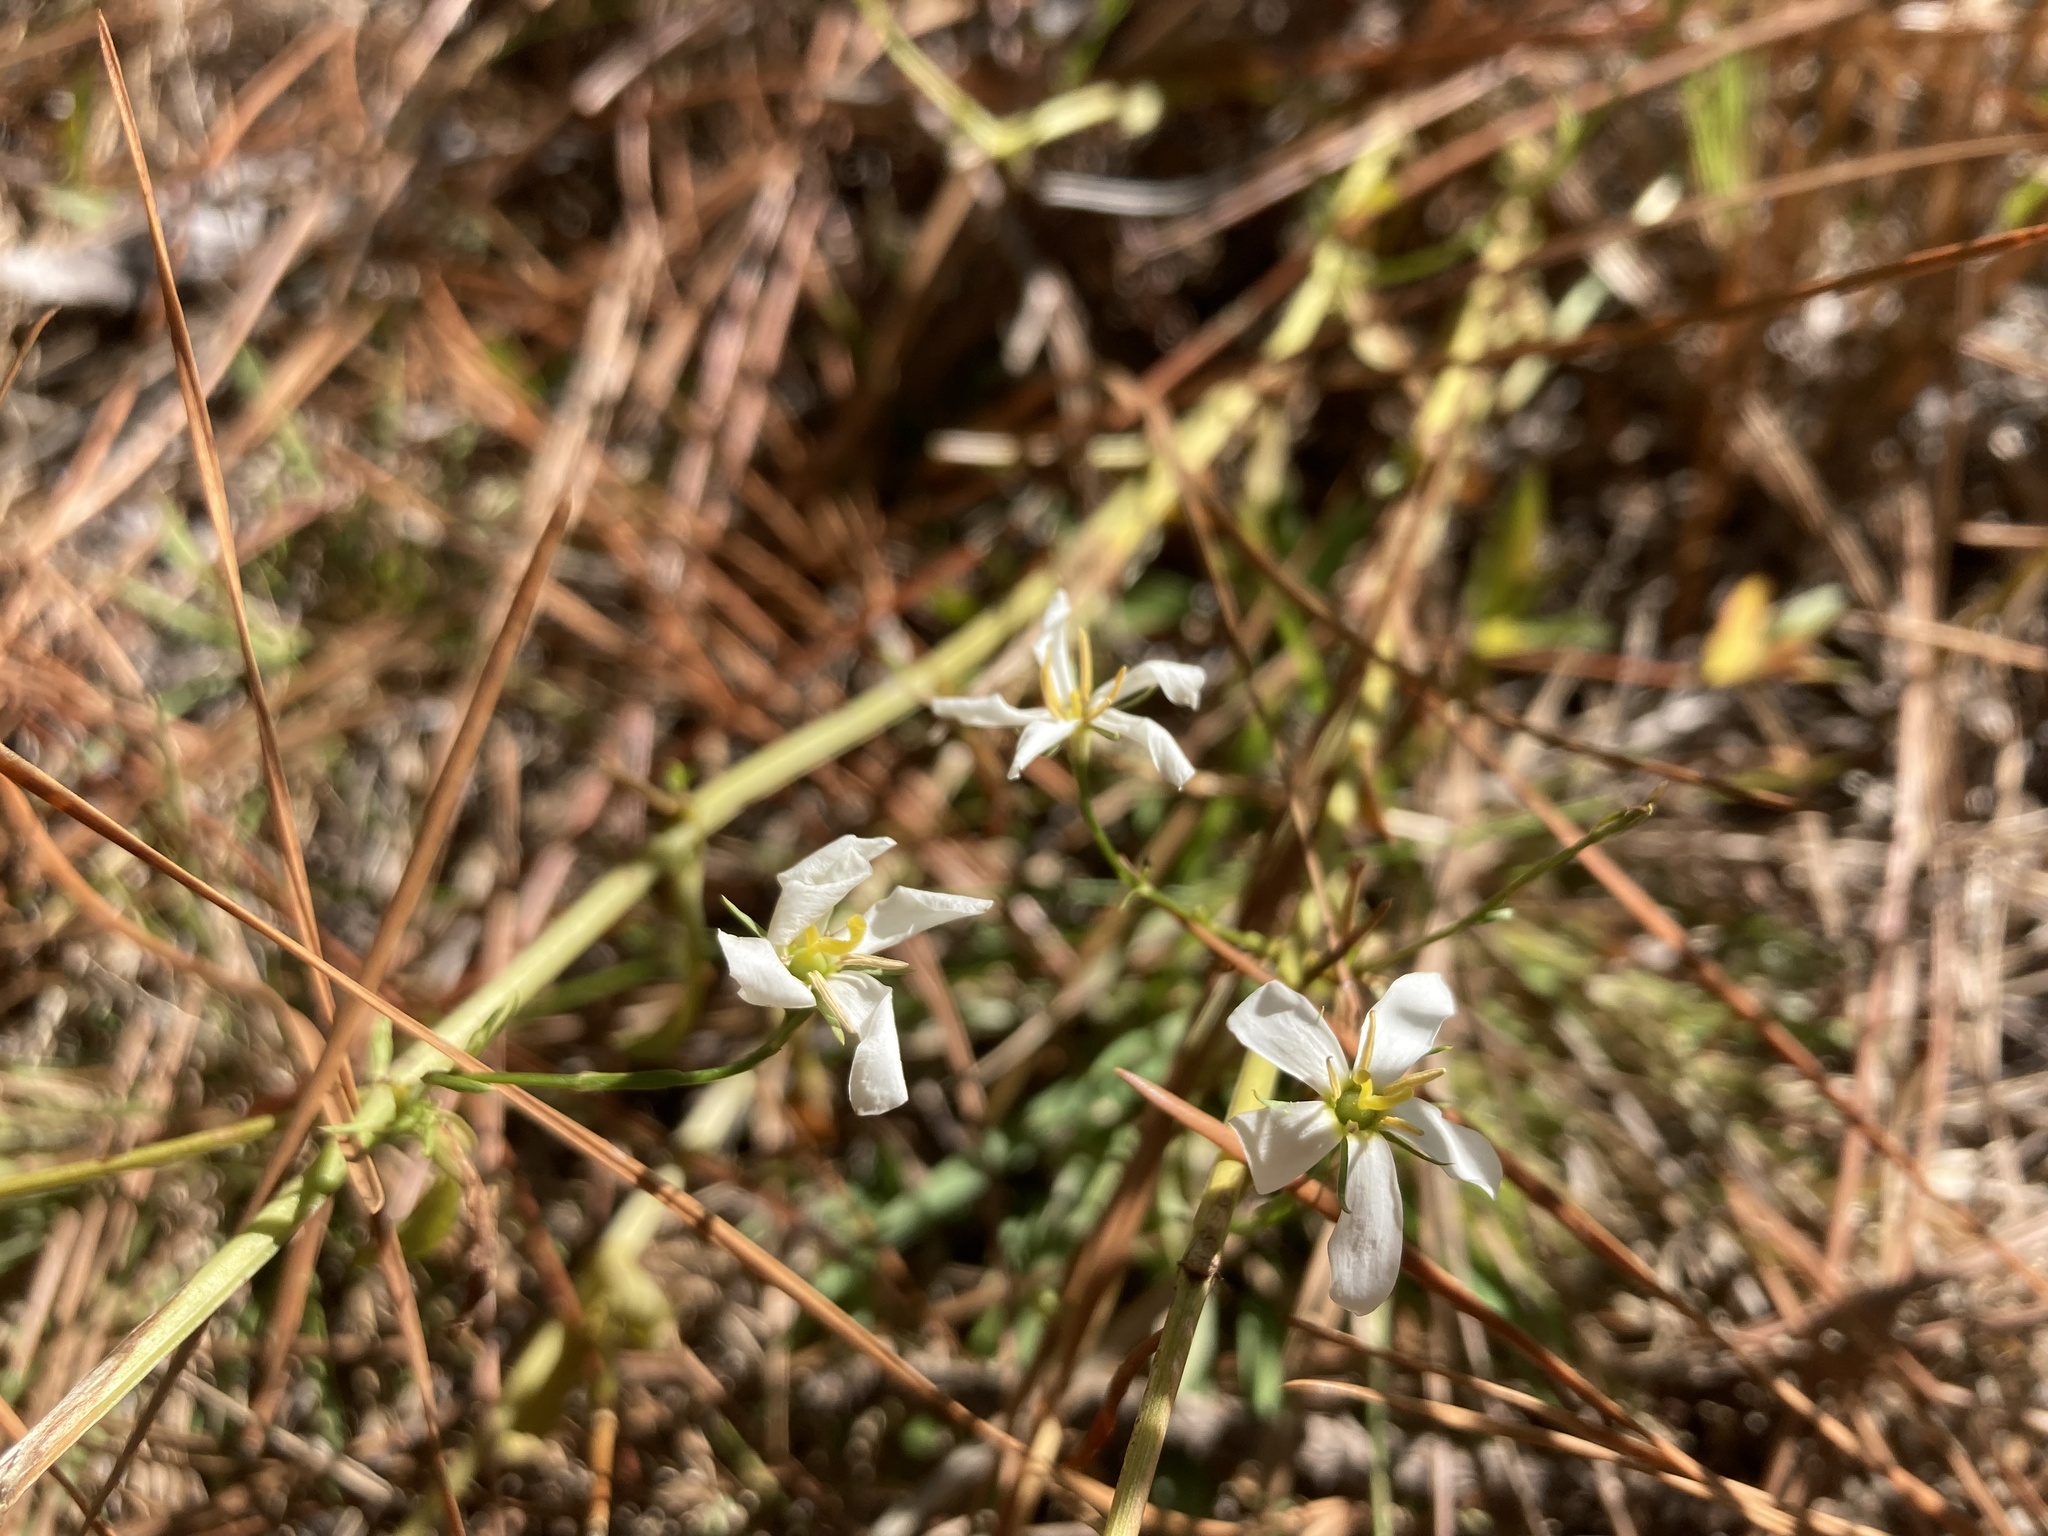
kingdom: Plantae
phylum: Tracheophyta
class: Magnoliopsida
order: Gentianales
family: Gentianaceae
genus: Sabatia
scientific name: Sabatia brevifolia
